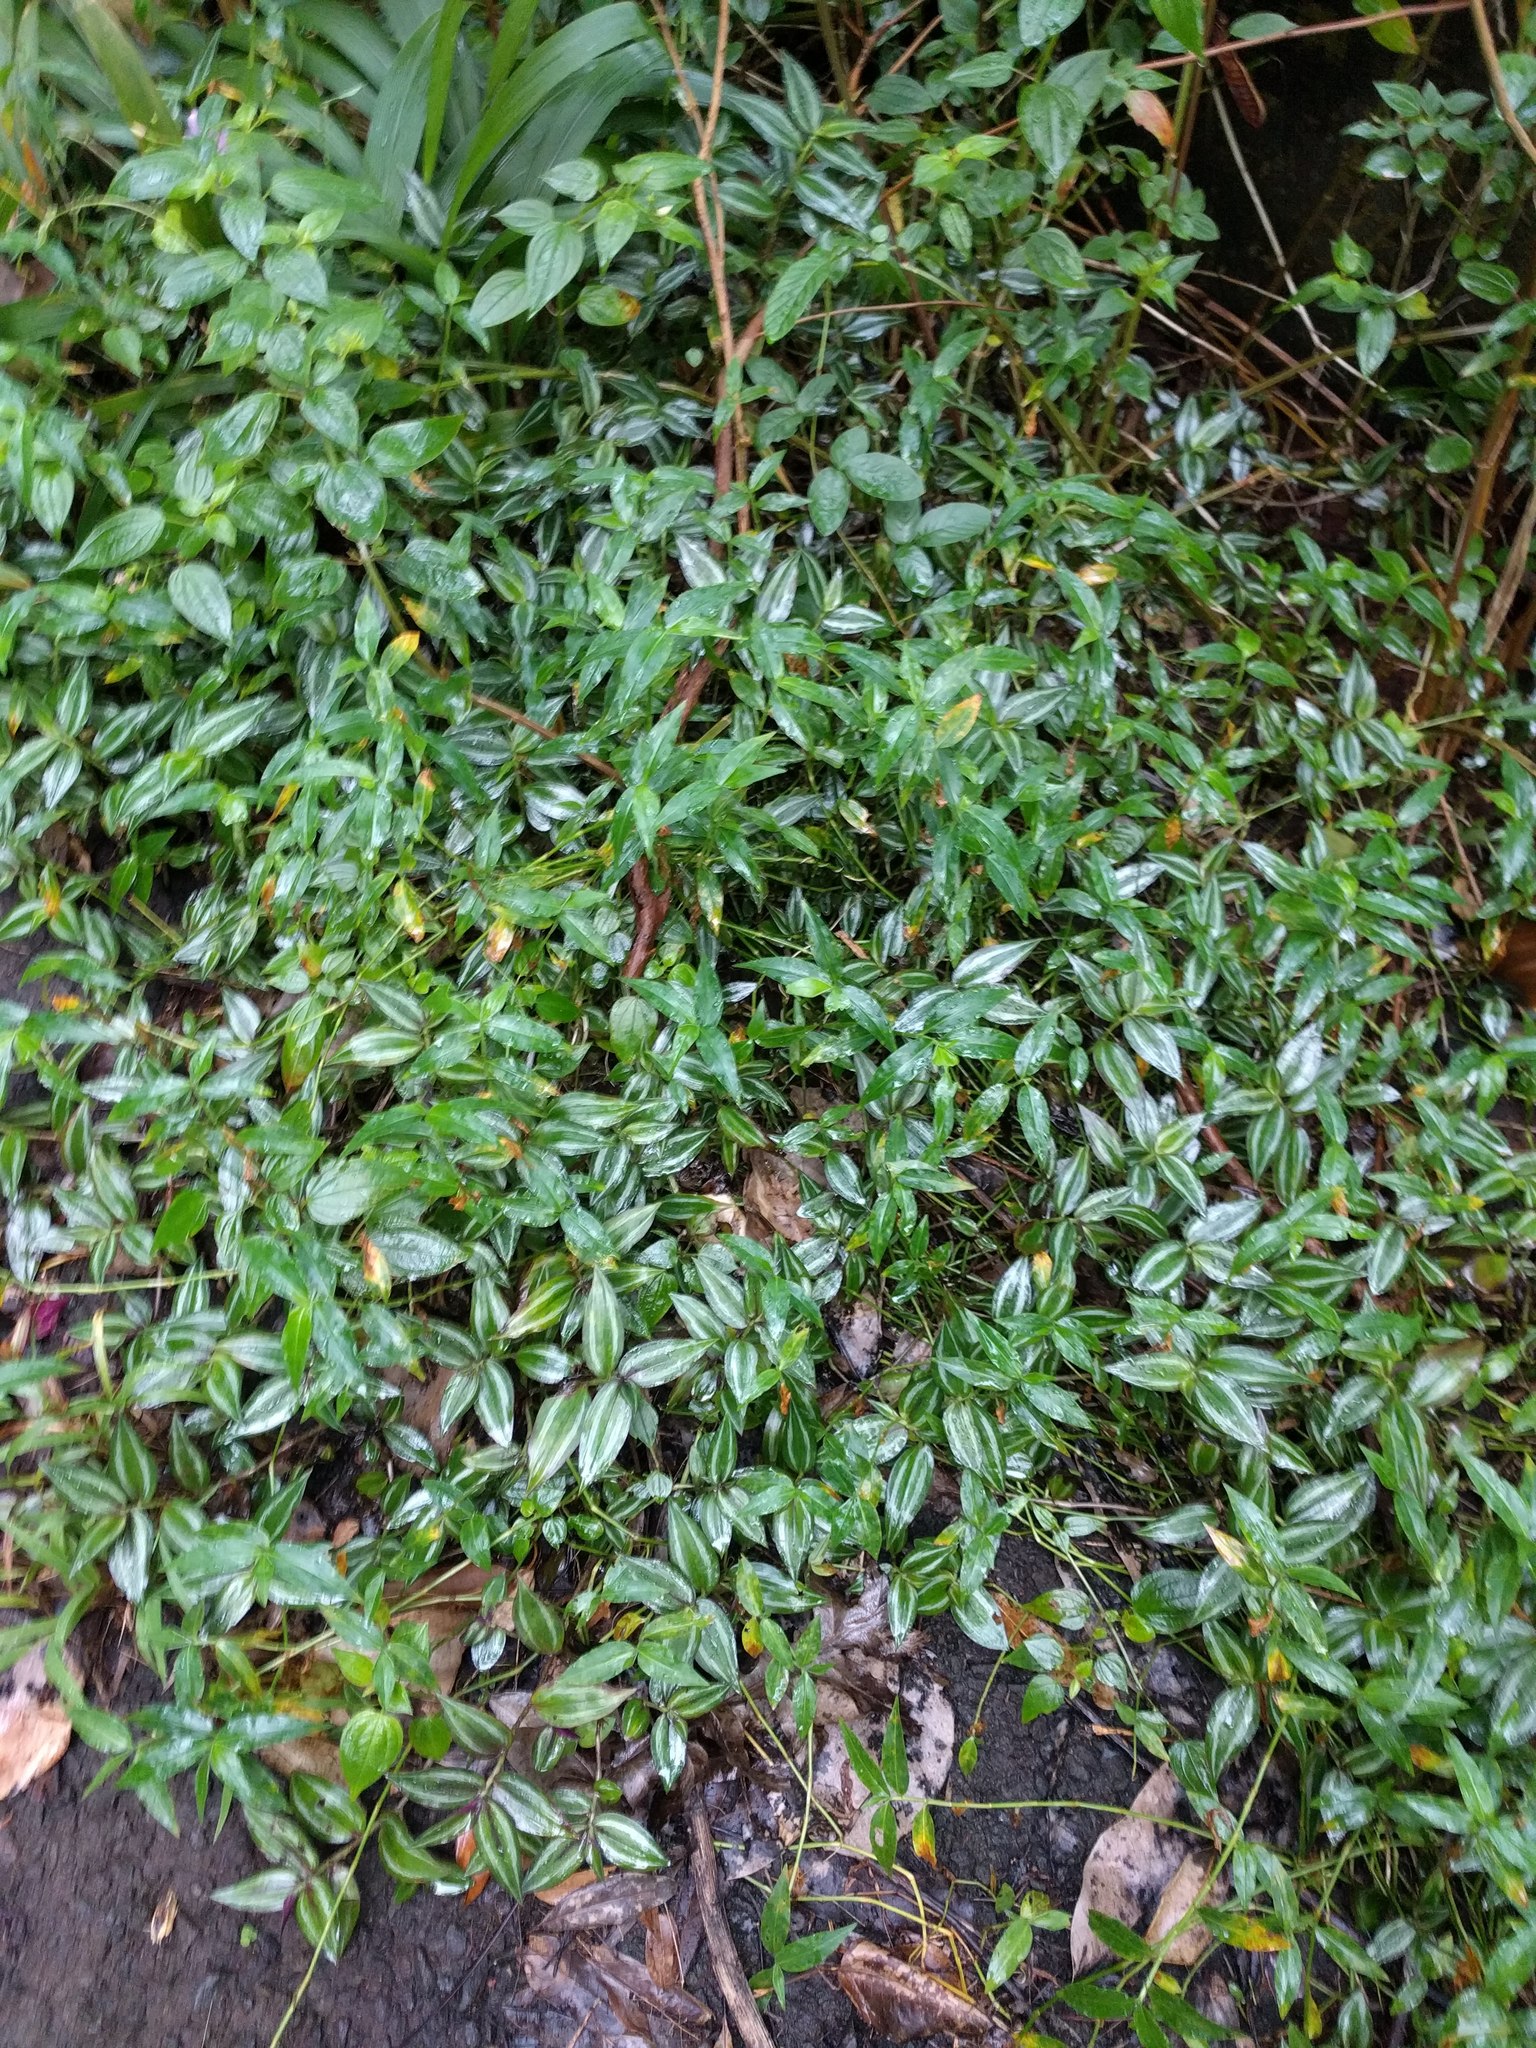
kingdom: Plantae
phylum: Tracheophyta
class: Liliopsida
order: Commelinales
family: Commelinaceae
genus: Tradescantia
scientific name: Tradescantia zebrina
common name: Inchplant
